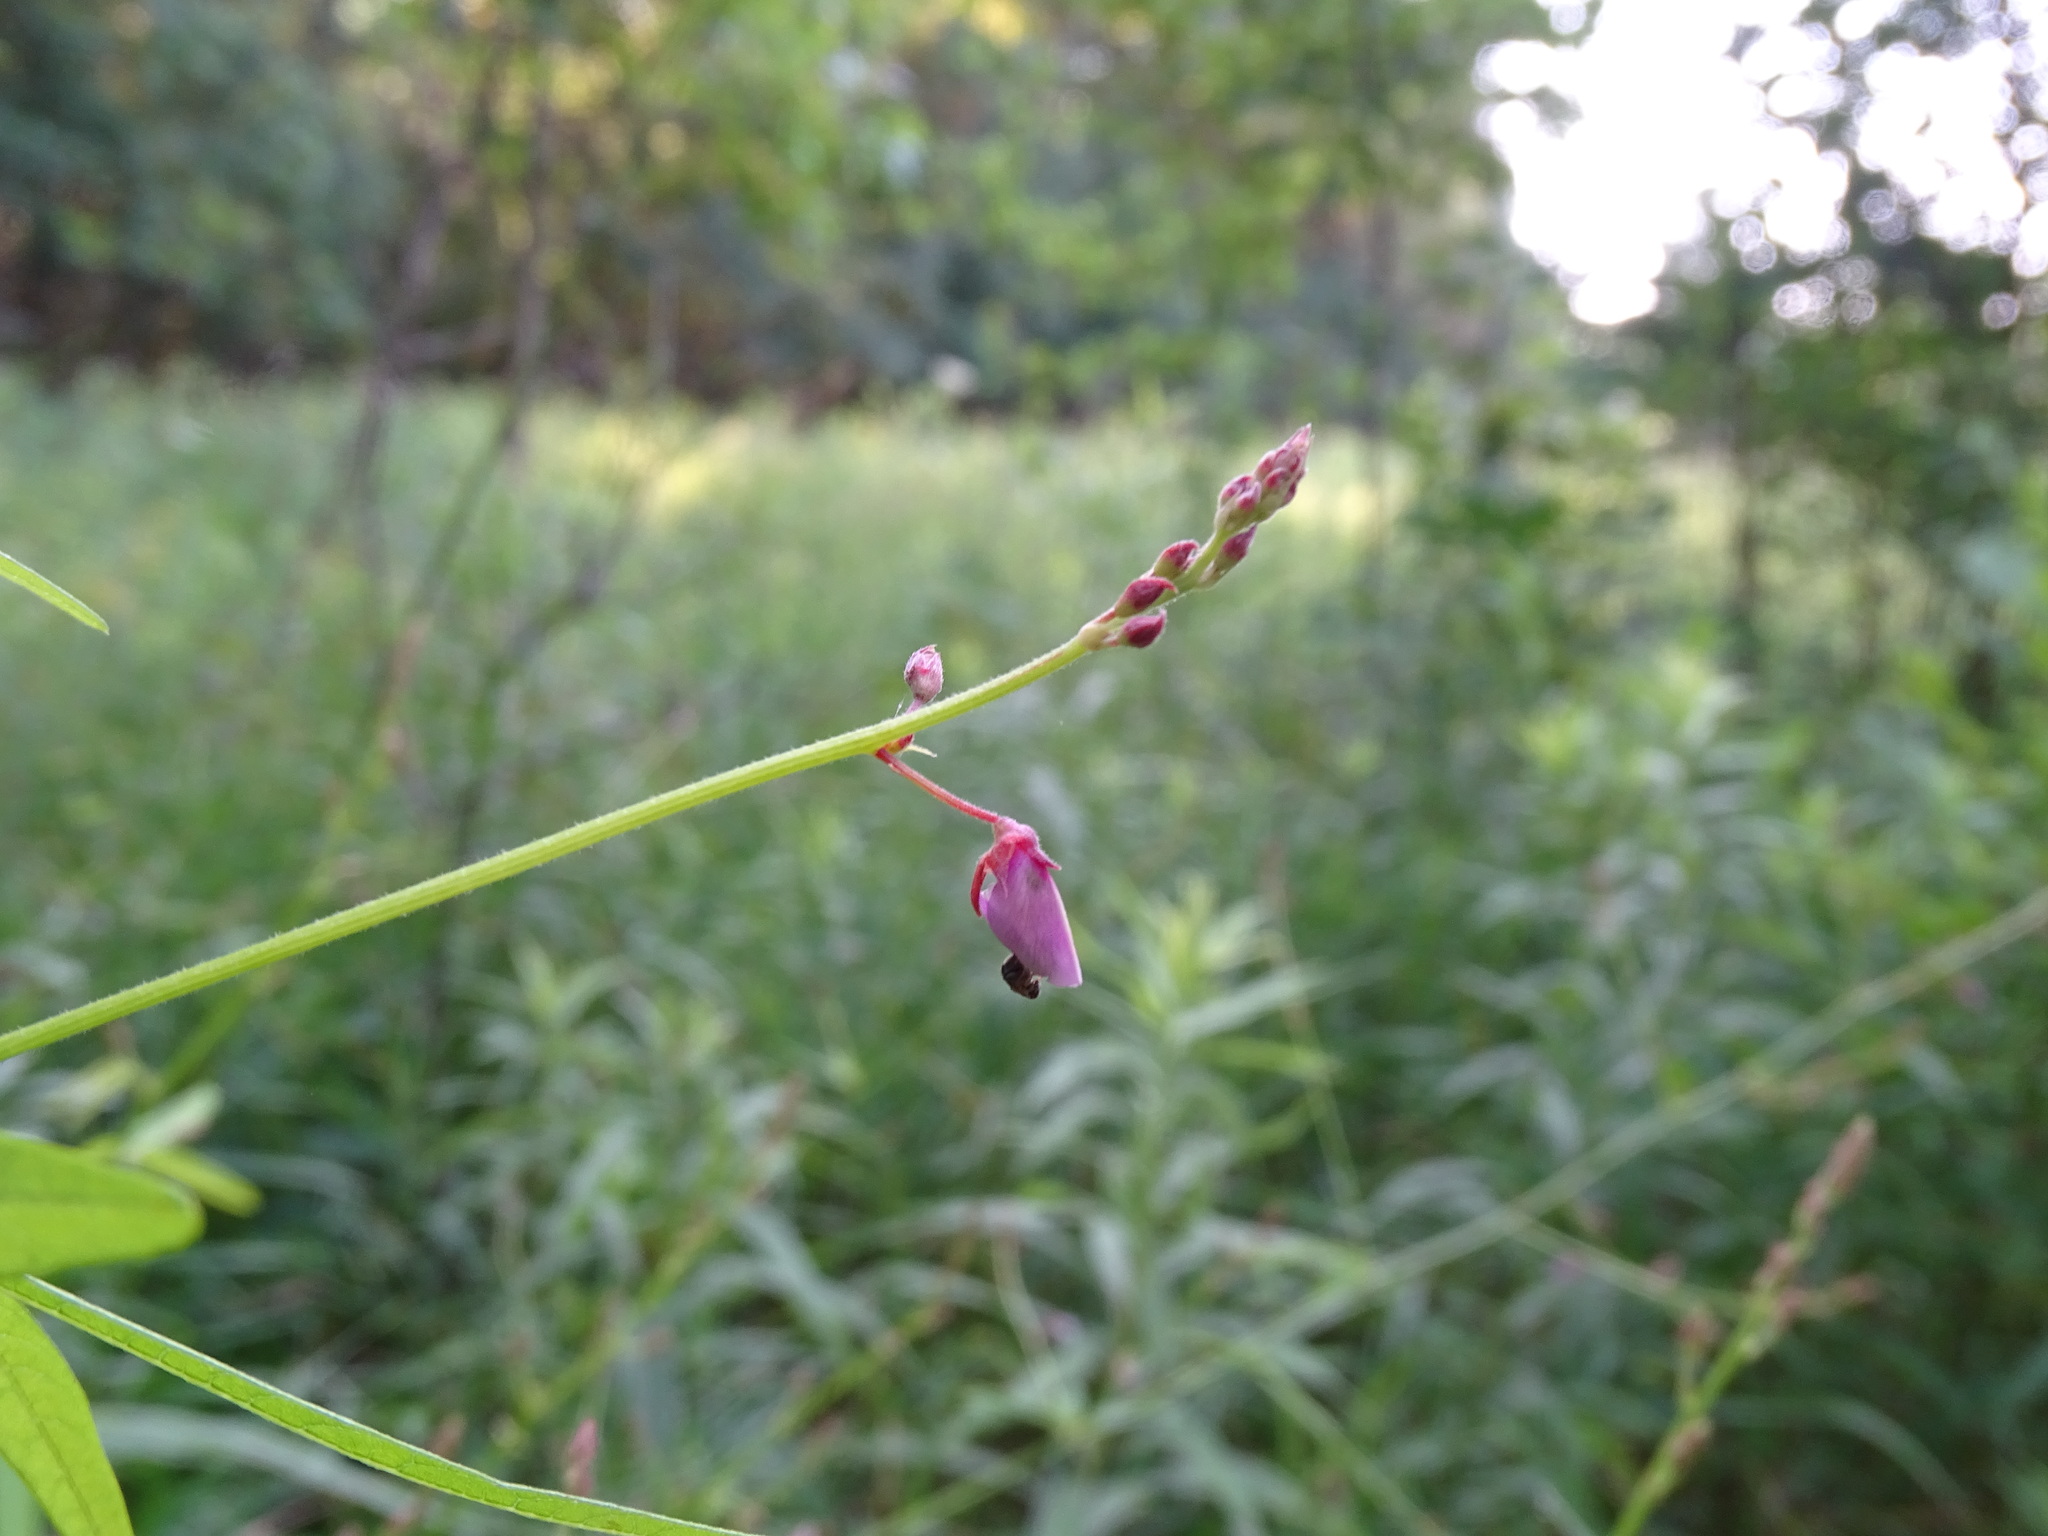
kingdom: Plantae
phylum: Tracheophyta
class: Magnoliopsida
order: Fabales
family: Fabaceae
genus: Desmodium
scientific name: Desmodium paniculatum
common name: Panicled tick-clover
